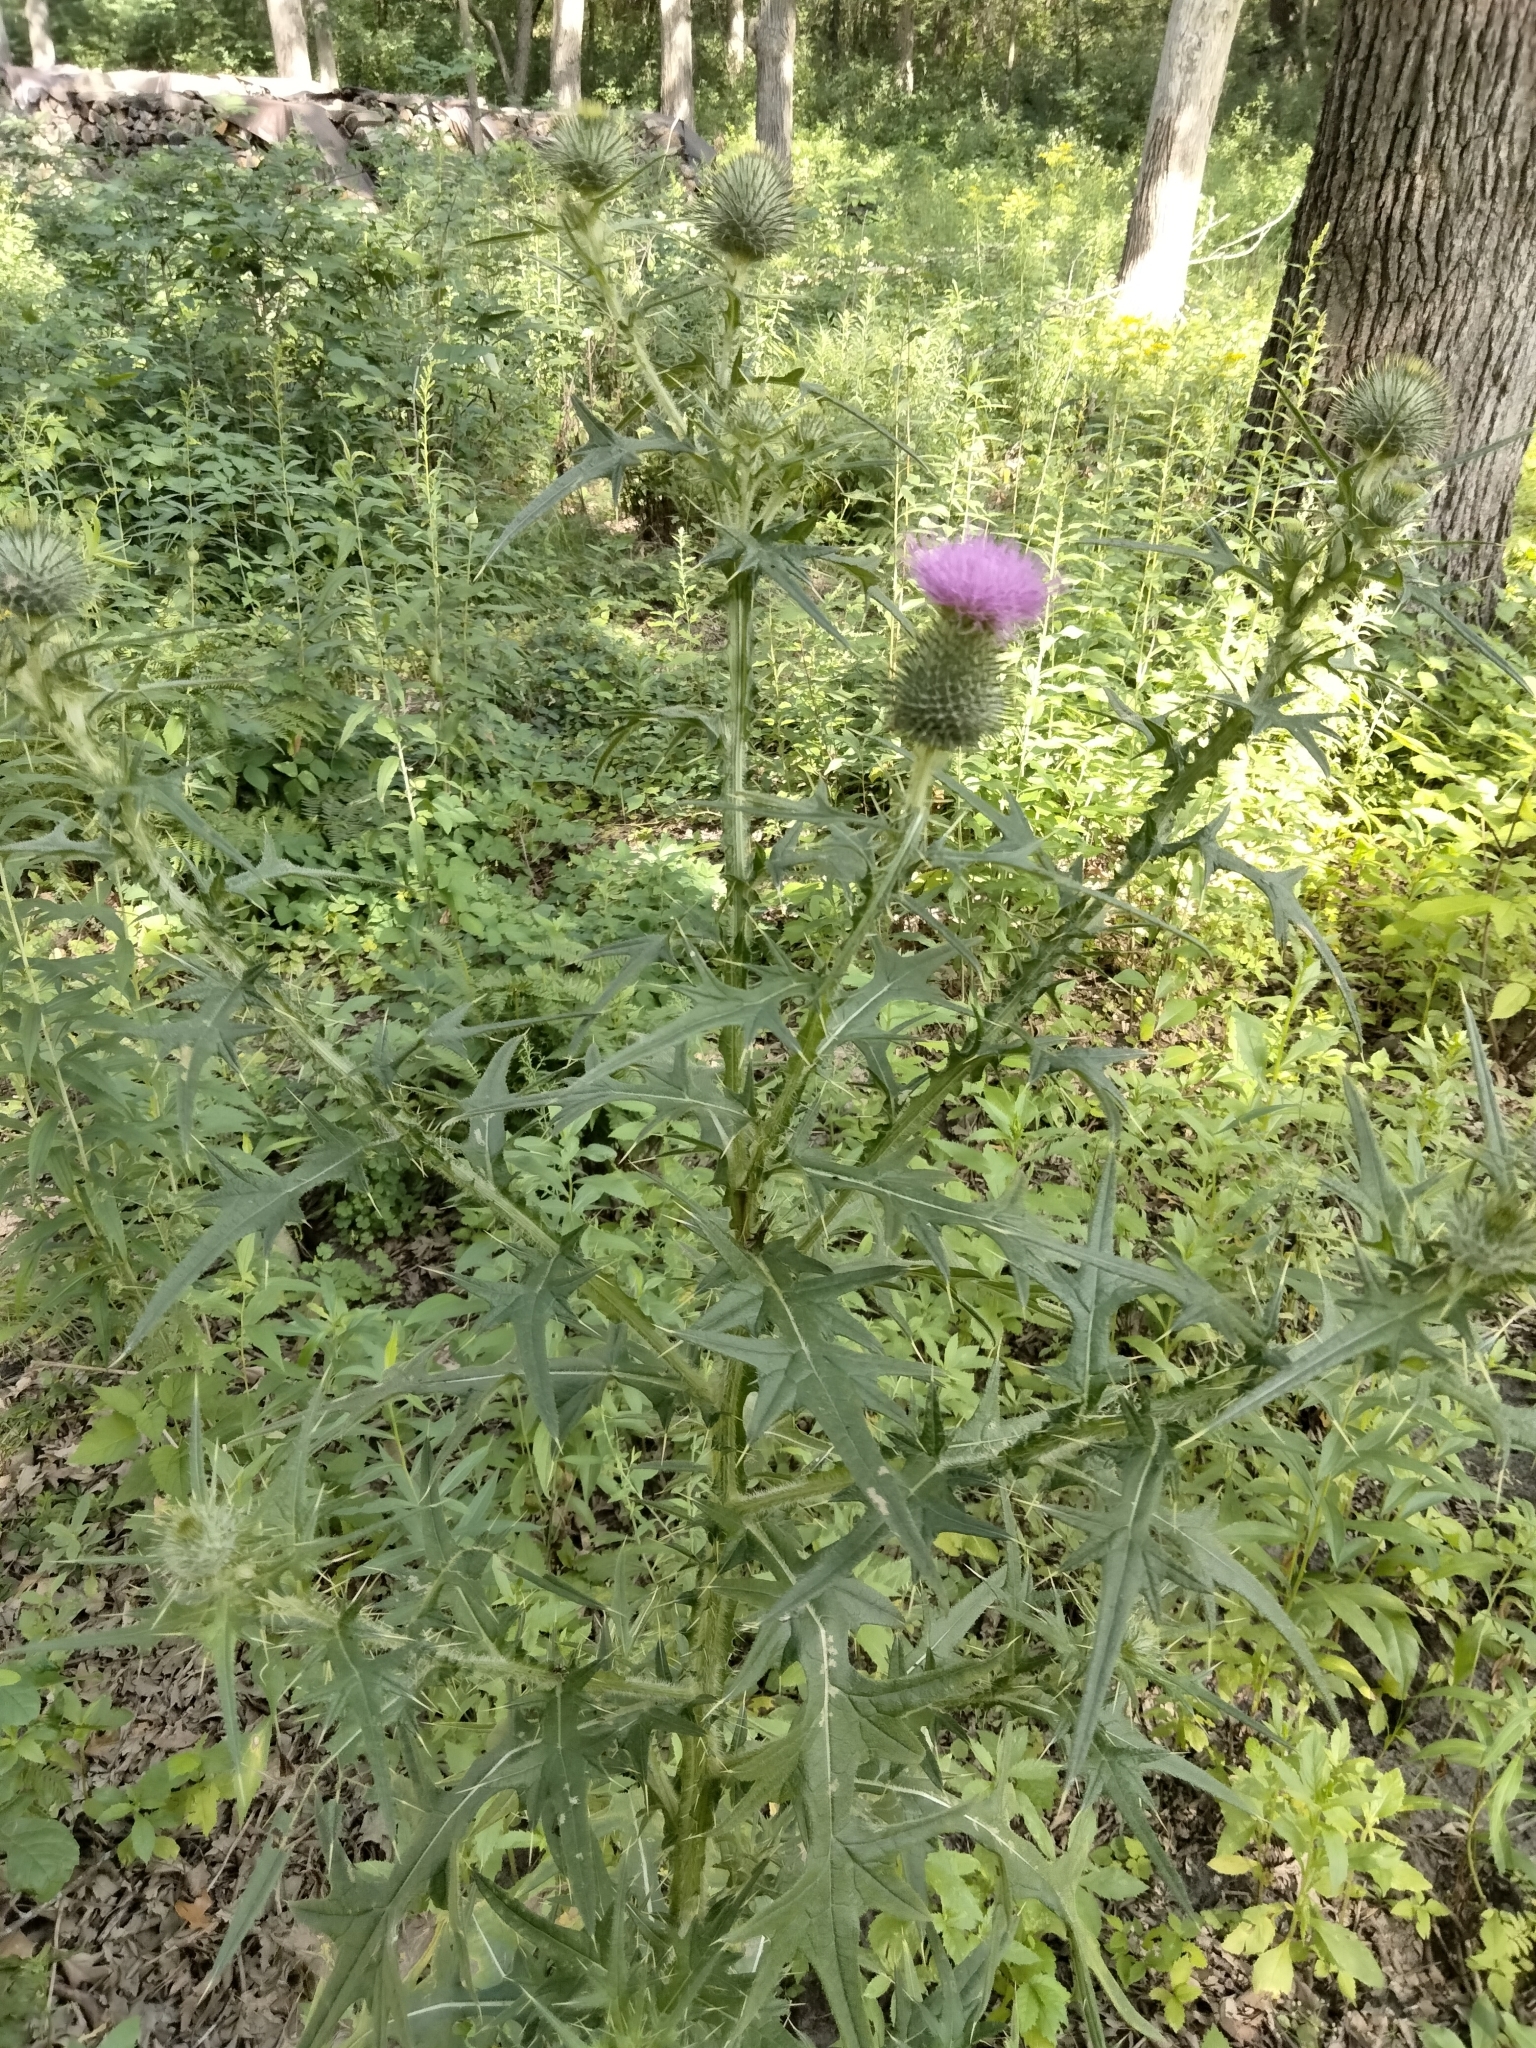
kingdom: Plantae
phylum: Tracheophyta
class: Magnoliopsida
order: Asterales
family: Asteraceae
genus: Cirsium
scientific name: Cirsium vulgare
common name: Bull thistle
